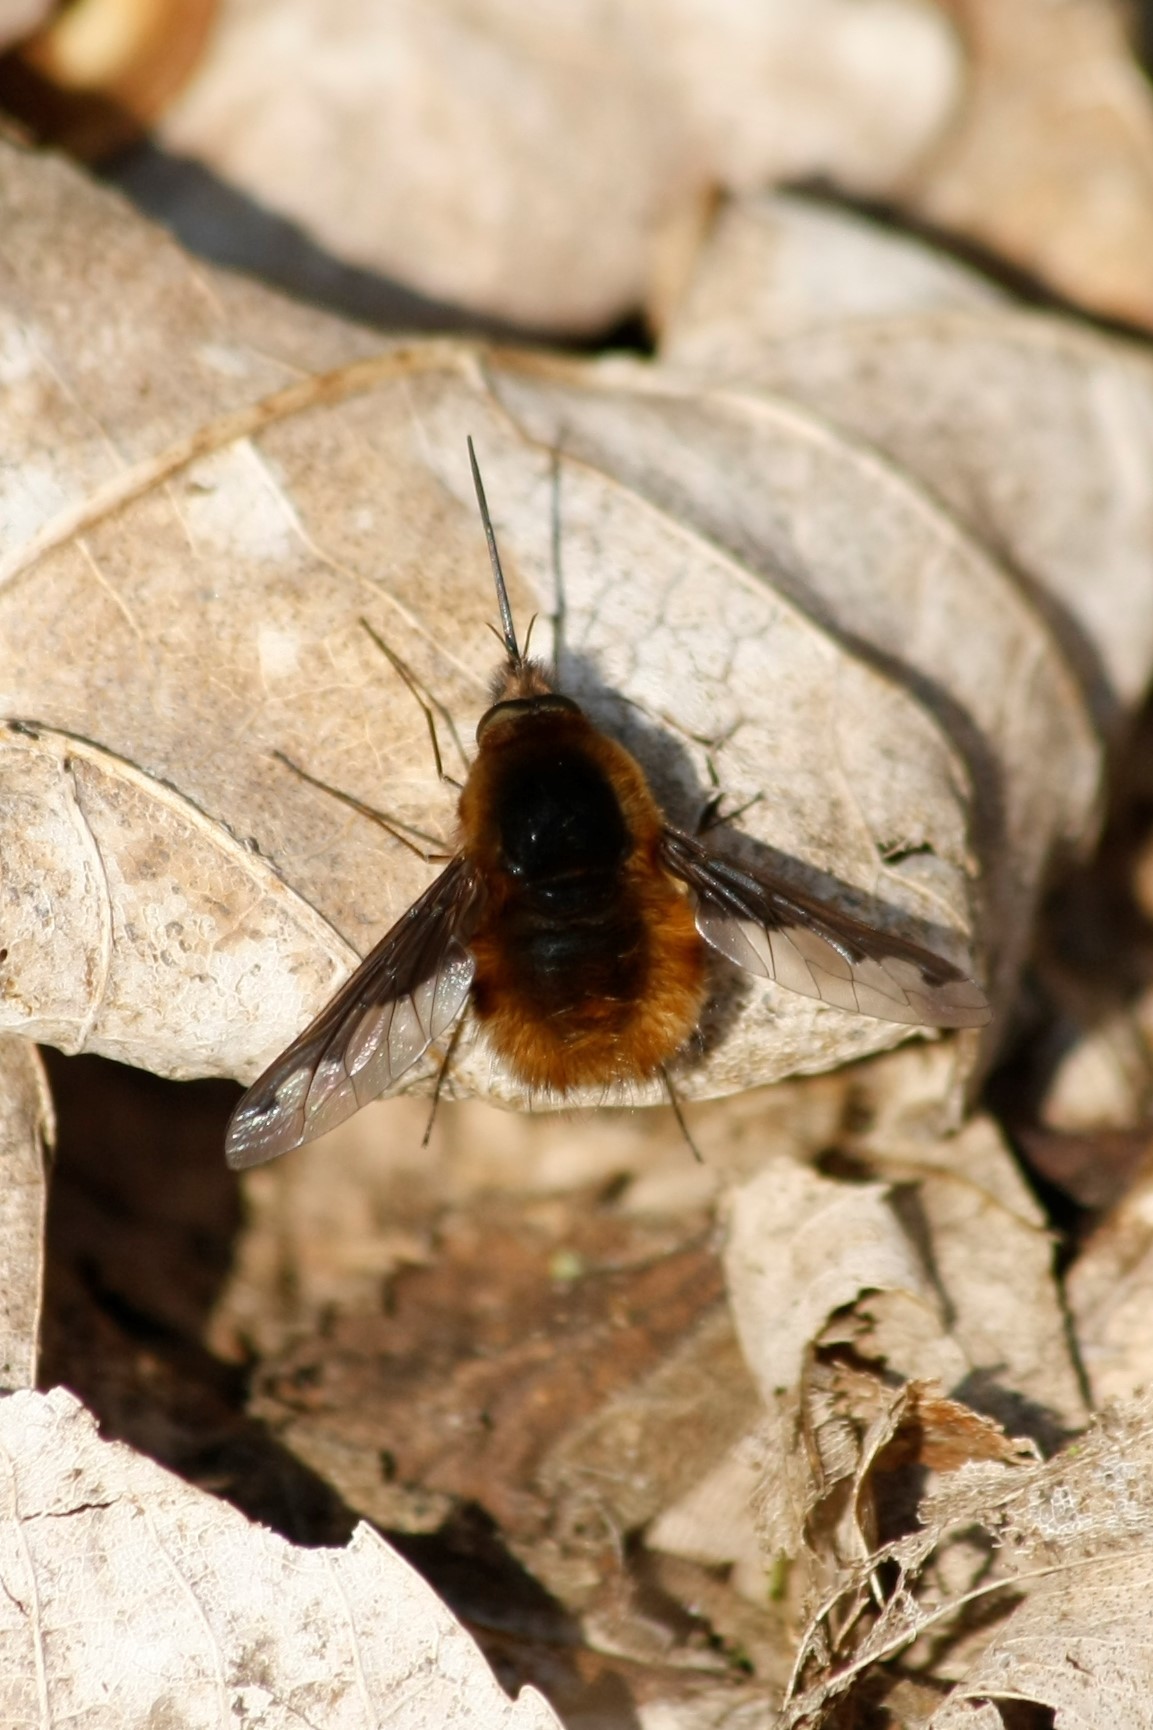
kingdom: Animalia
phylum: Arthropoda
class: Insecta
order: Diptera
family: Bombyliidae
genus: Bombylius
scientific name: Bombylius major
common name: Bee fly
